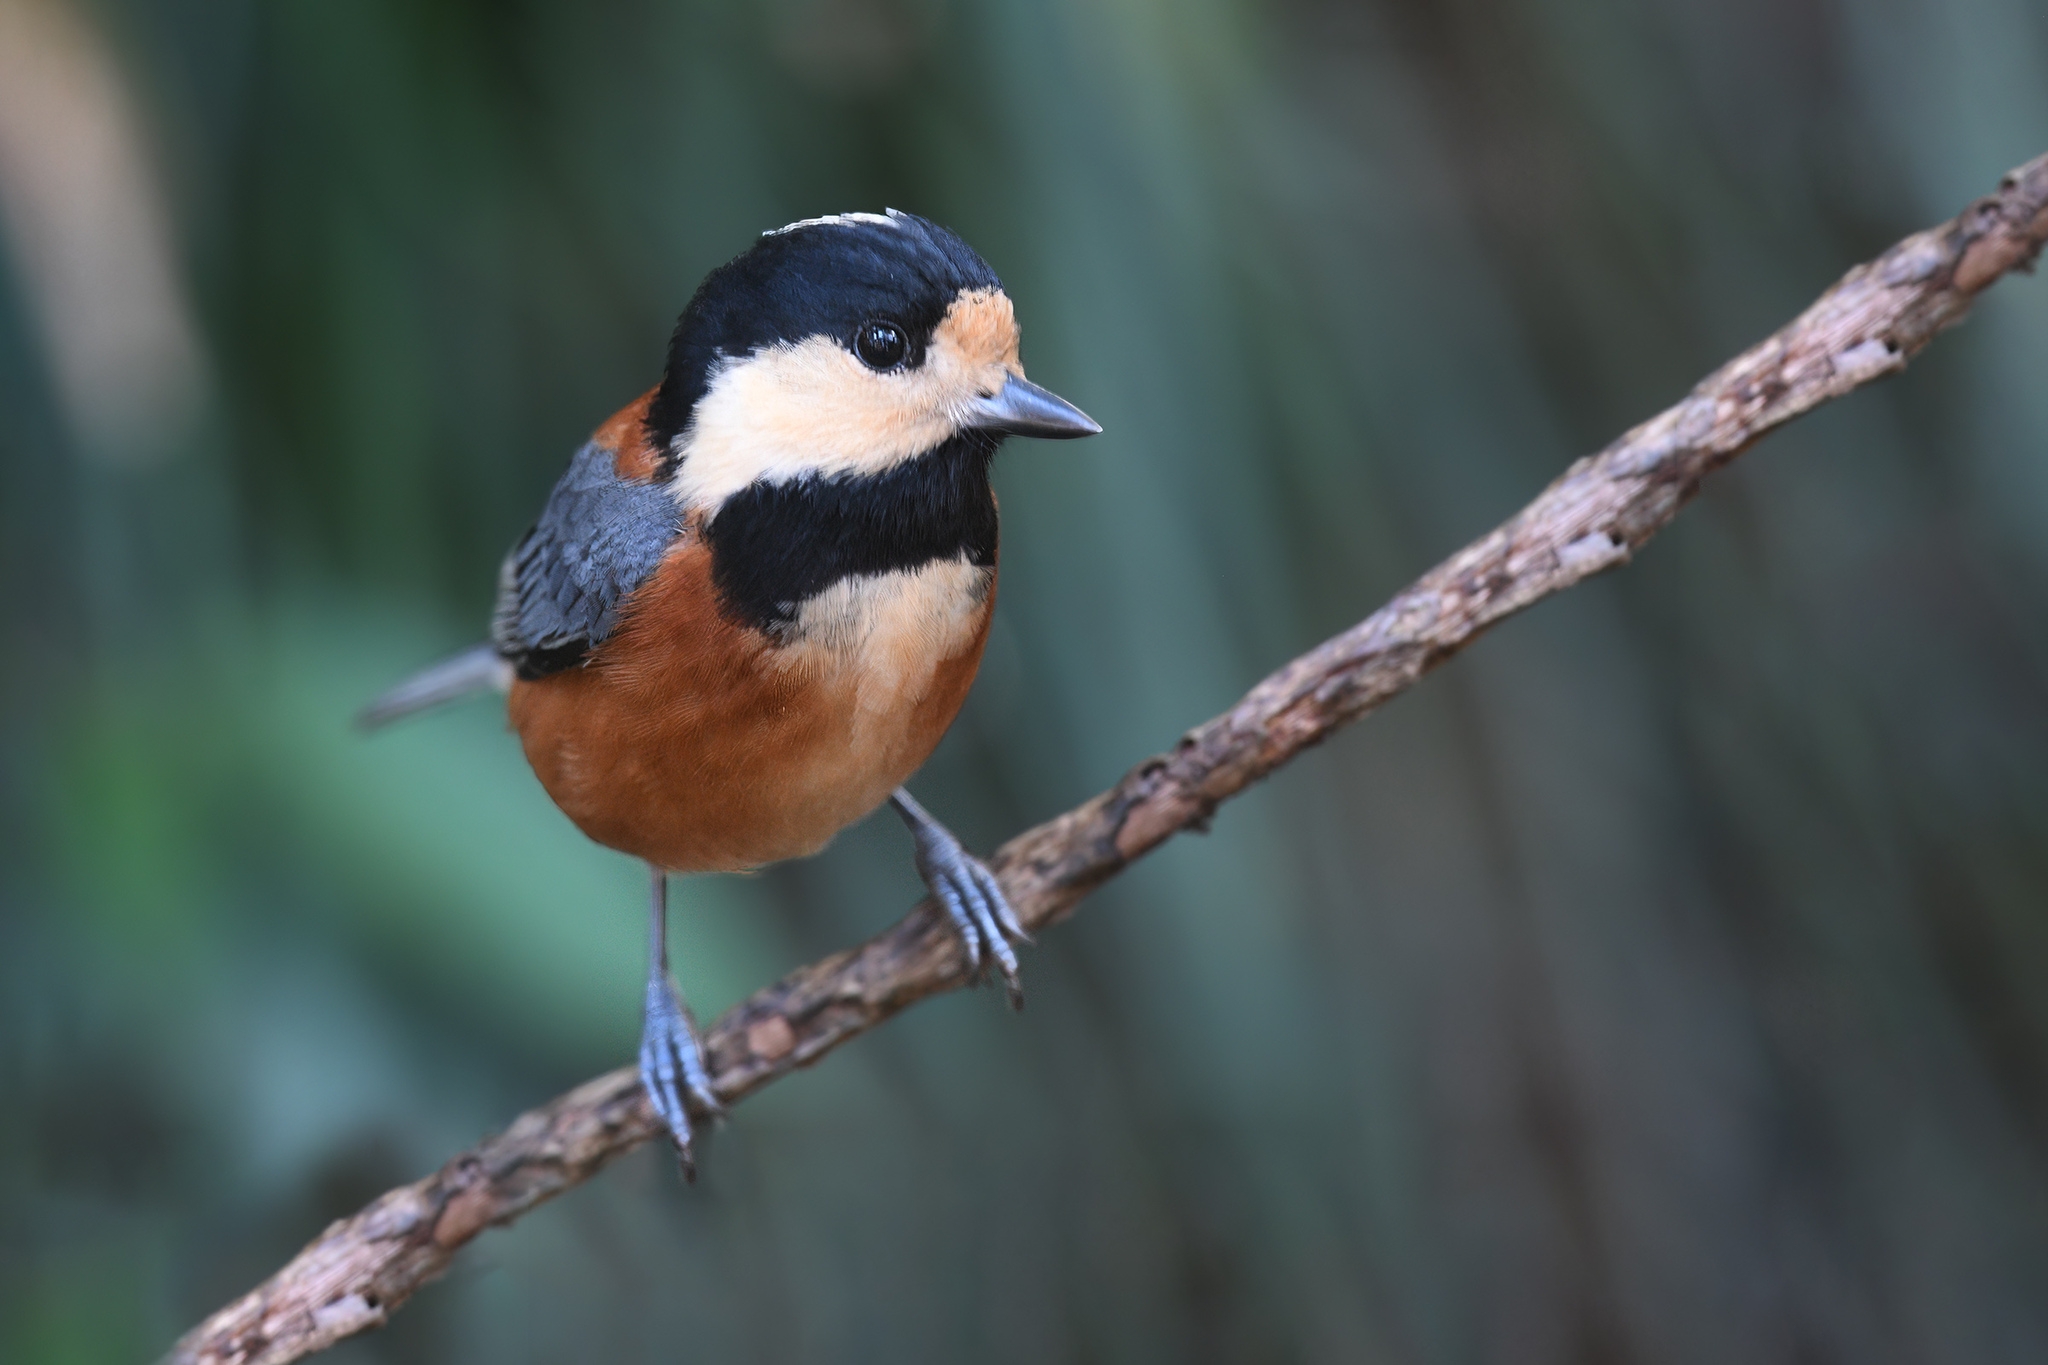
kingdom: Animalia
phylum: Chordata
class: Aves
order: Passeriformes
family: Paridae
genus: Poecile
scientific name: Poecile varius
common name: Varied tit
